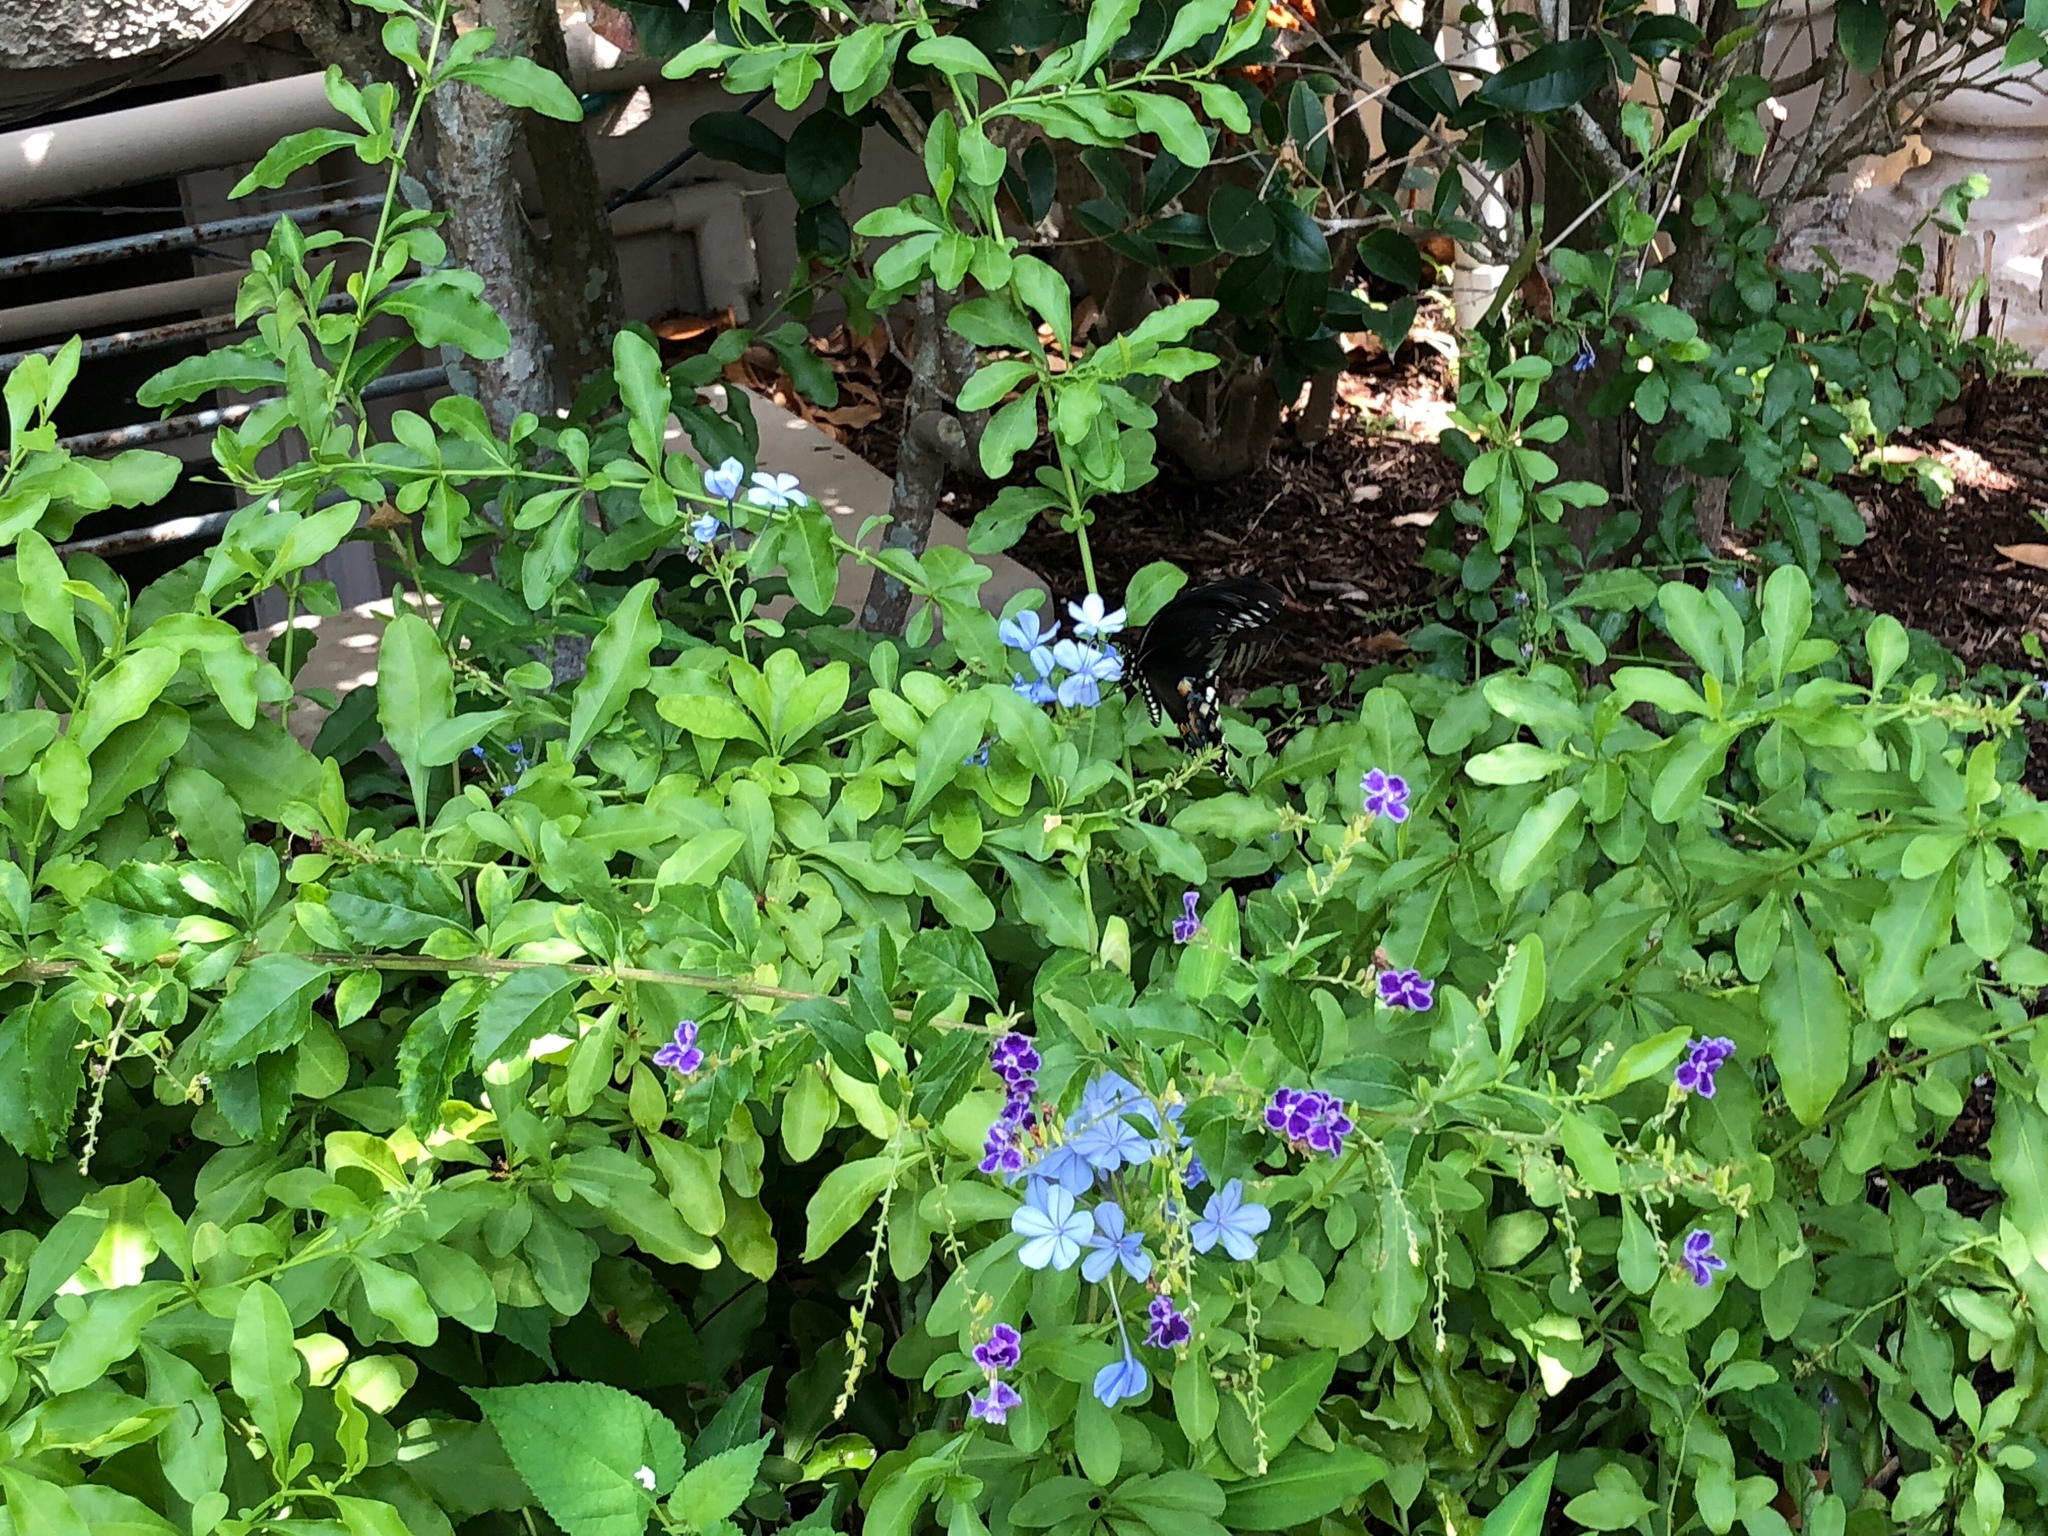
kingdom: Animalia
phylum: Arthropoda
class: Insecta
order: Lepidoptera
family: Papilionidae
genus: Papilio
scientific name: Papilio troilus
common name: Spicebush swallowtail
